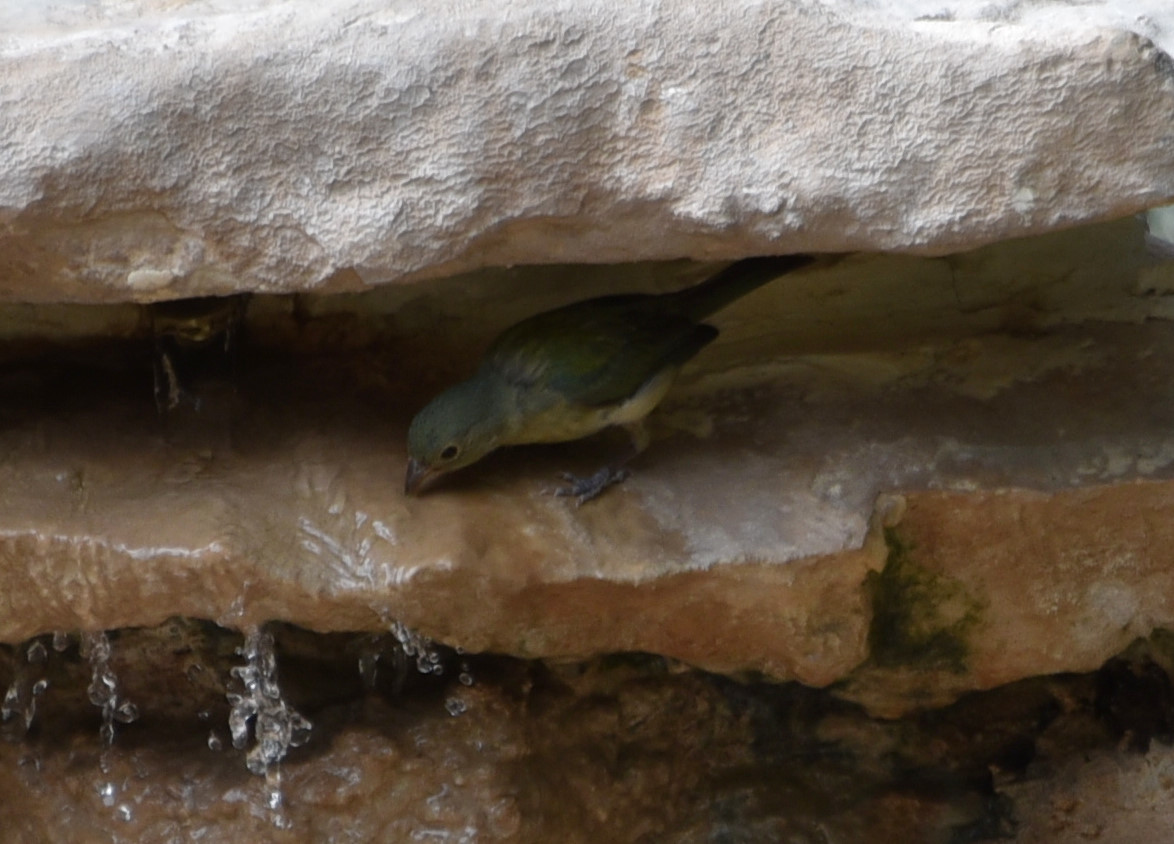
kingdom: Animalia
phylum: Chordata
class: Aves
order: Passeriformes
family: Cardinalidae
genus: Passerina
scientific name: Passerina ciris
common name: Painted bunting
